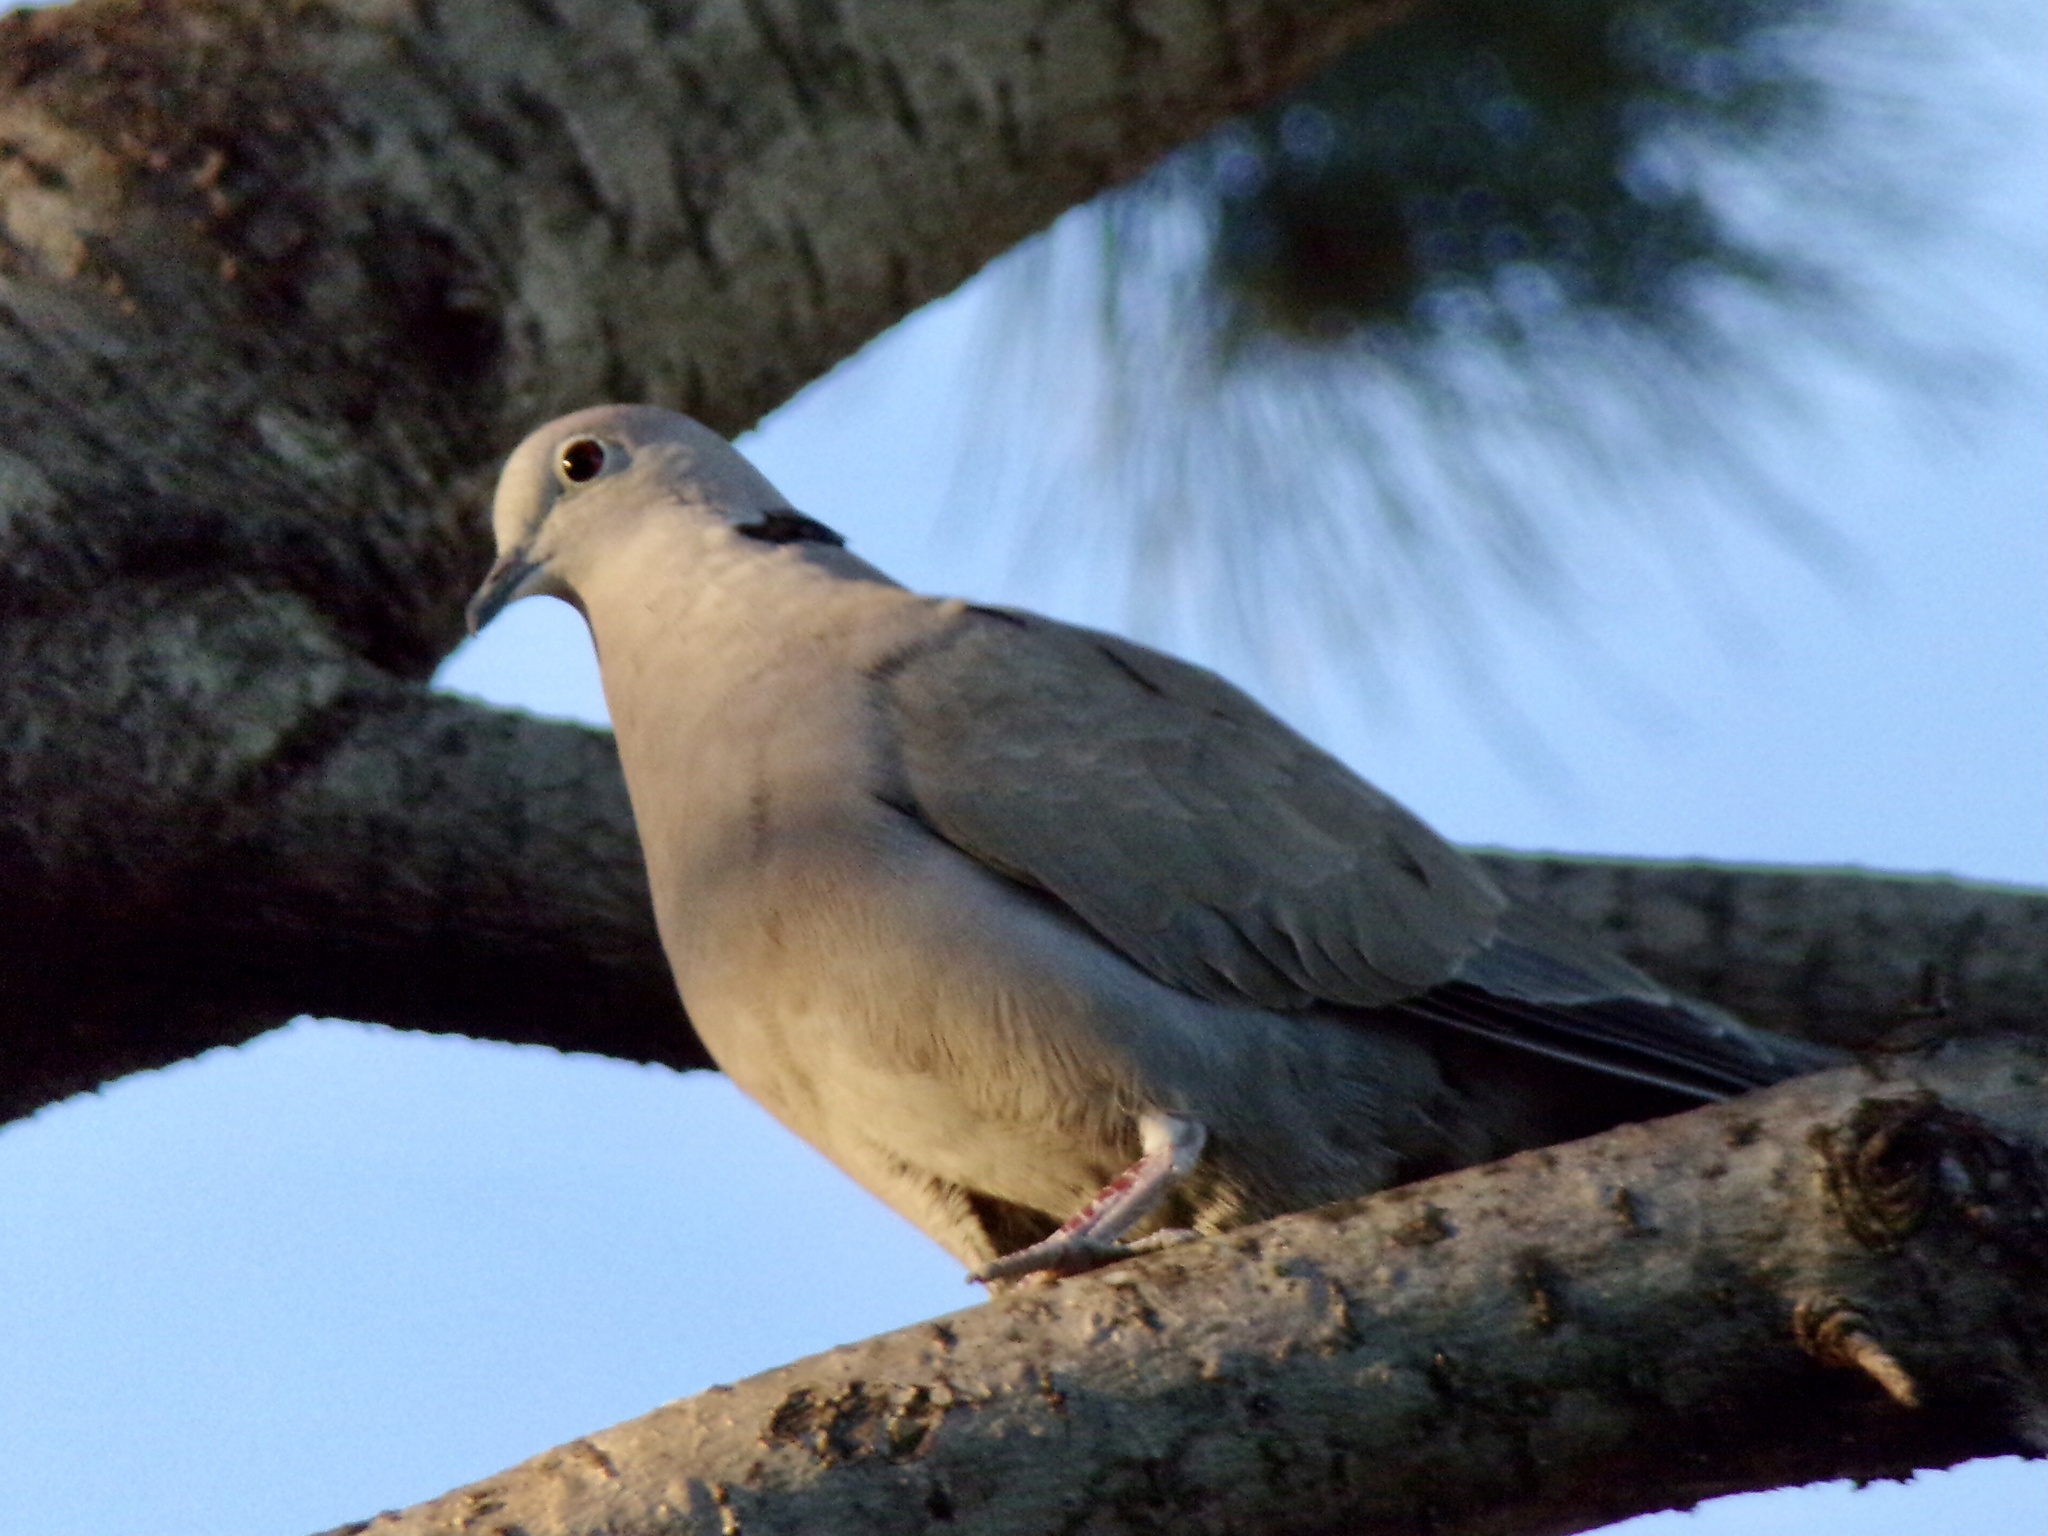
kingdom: Animalia
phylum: Chordata
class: Aves
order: Columbiformes
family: Columbidae
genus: Streptopelia
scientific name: Streptopelia decaocto
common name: Eurasian collared dove
